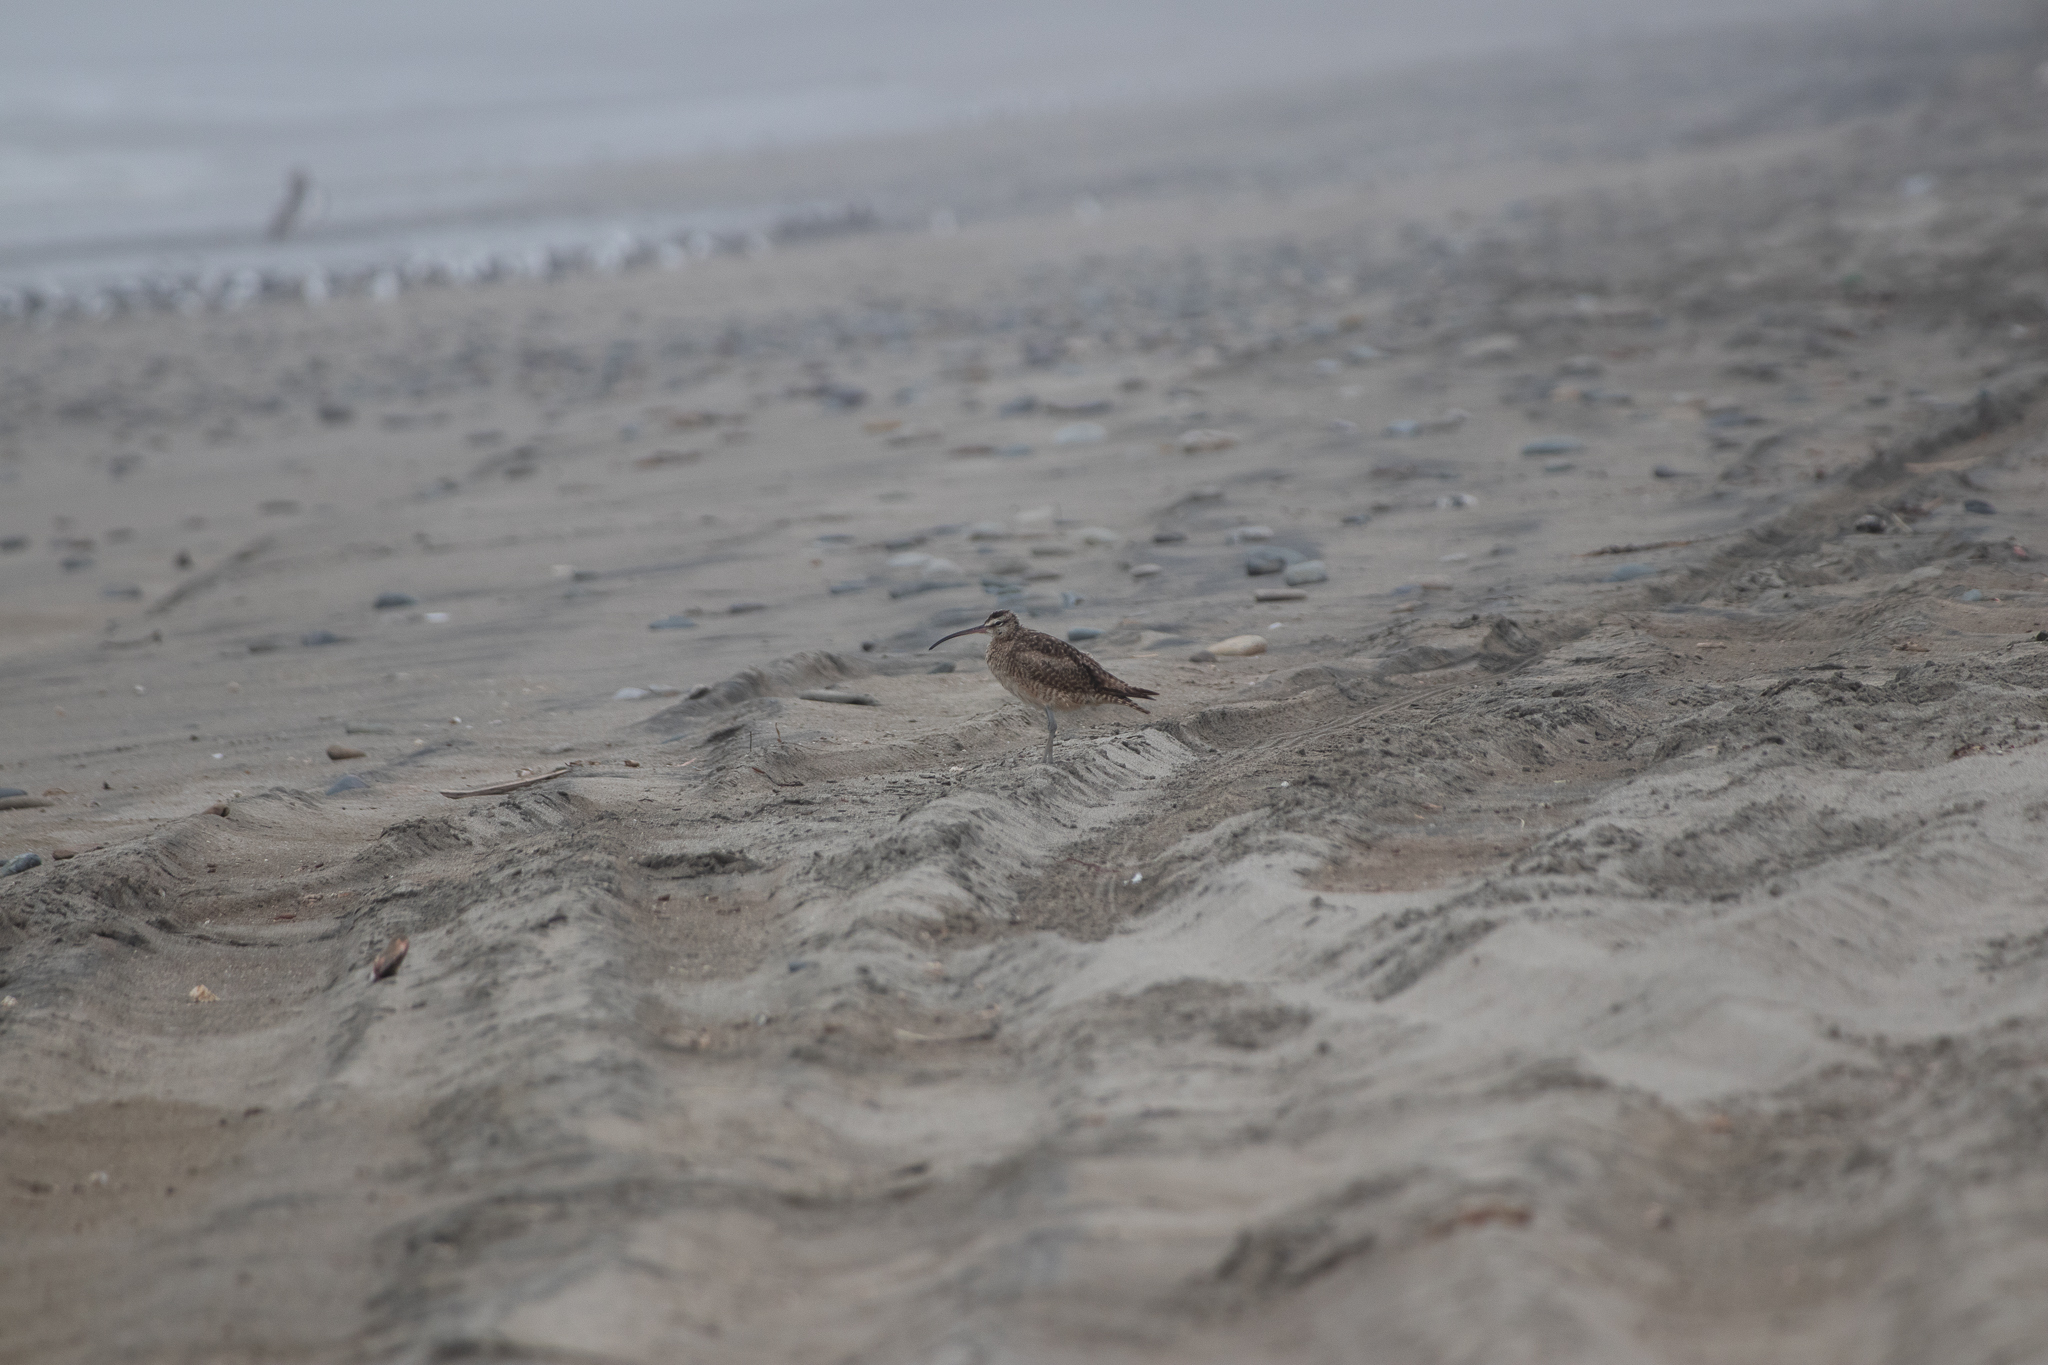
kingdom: Animalia
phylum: Chordata
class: Aves
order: Charadriiformes
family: Scolopacidae
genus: Numenius
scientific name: Numenius phaeopus
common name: Whimbrel
